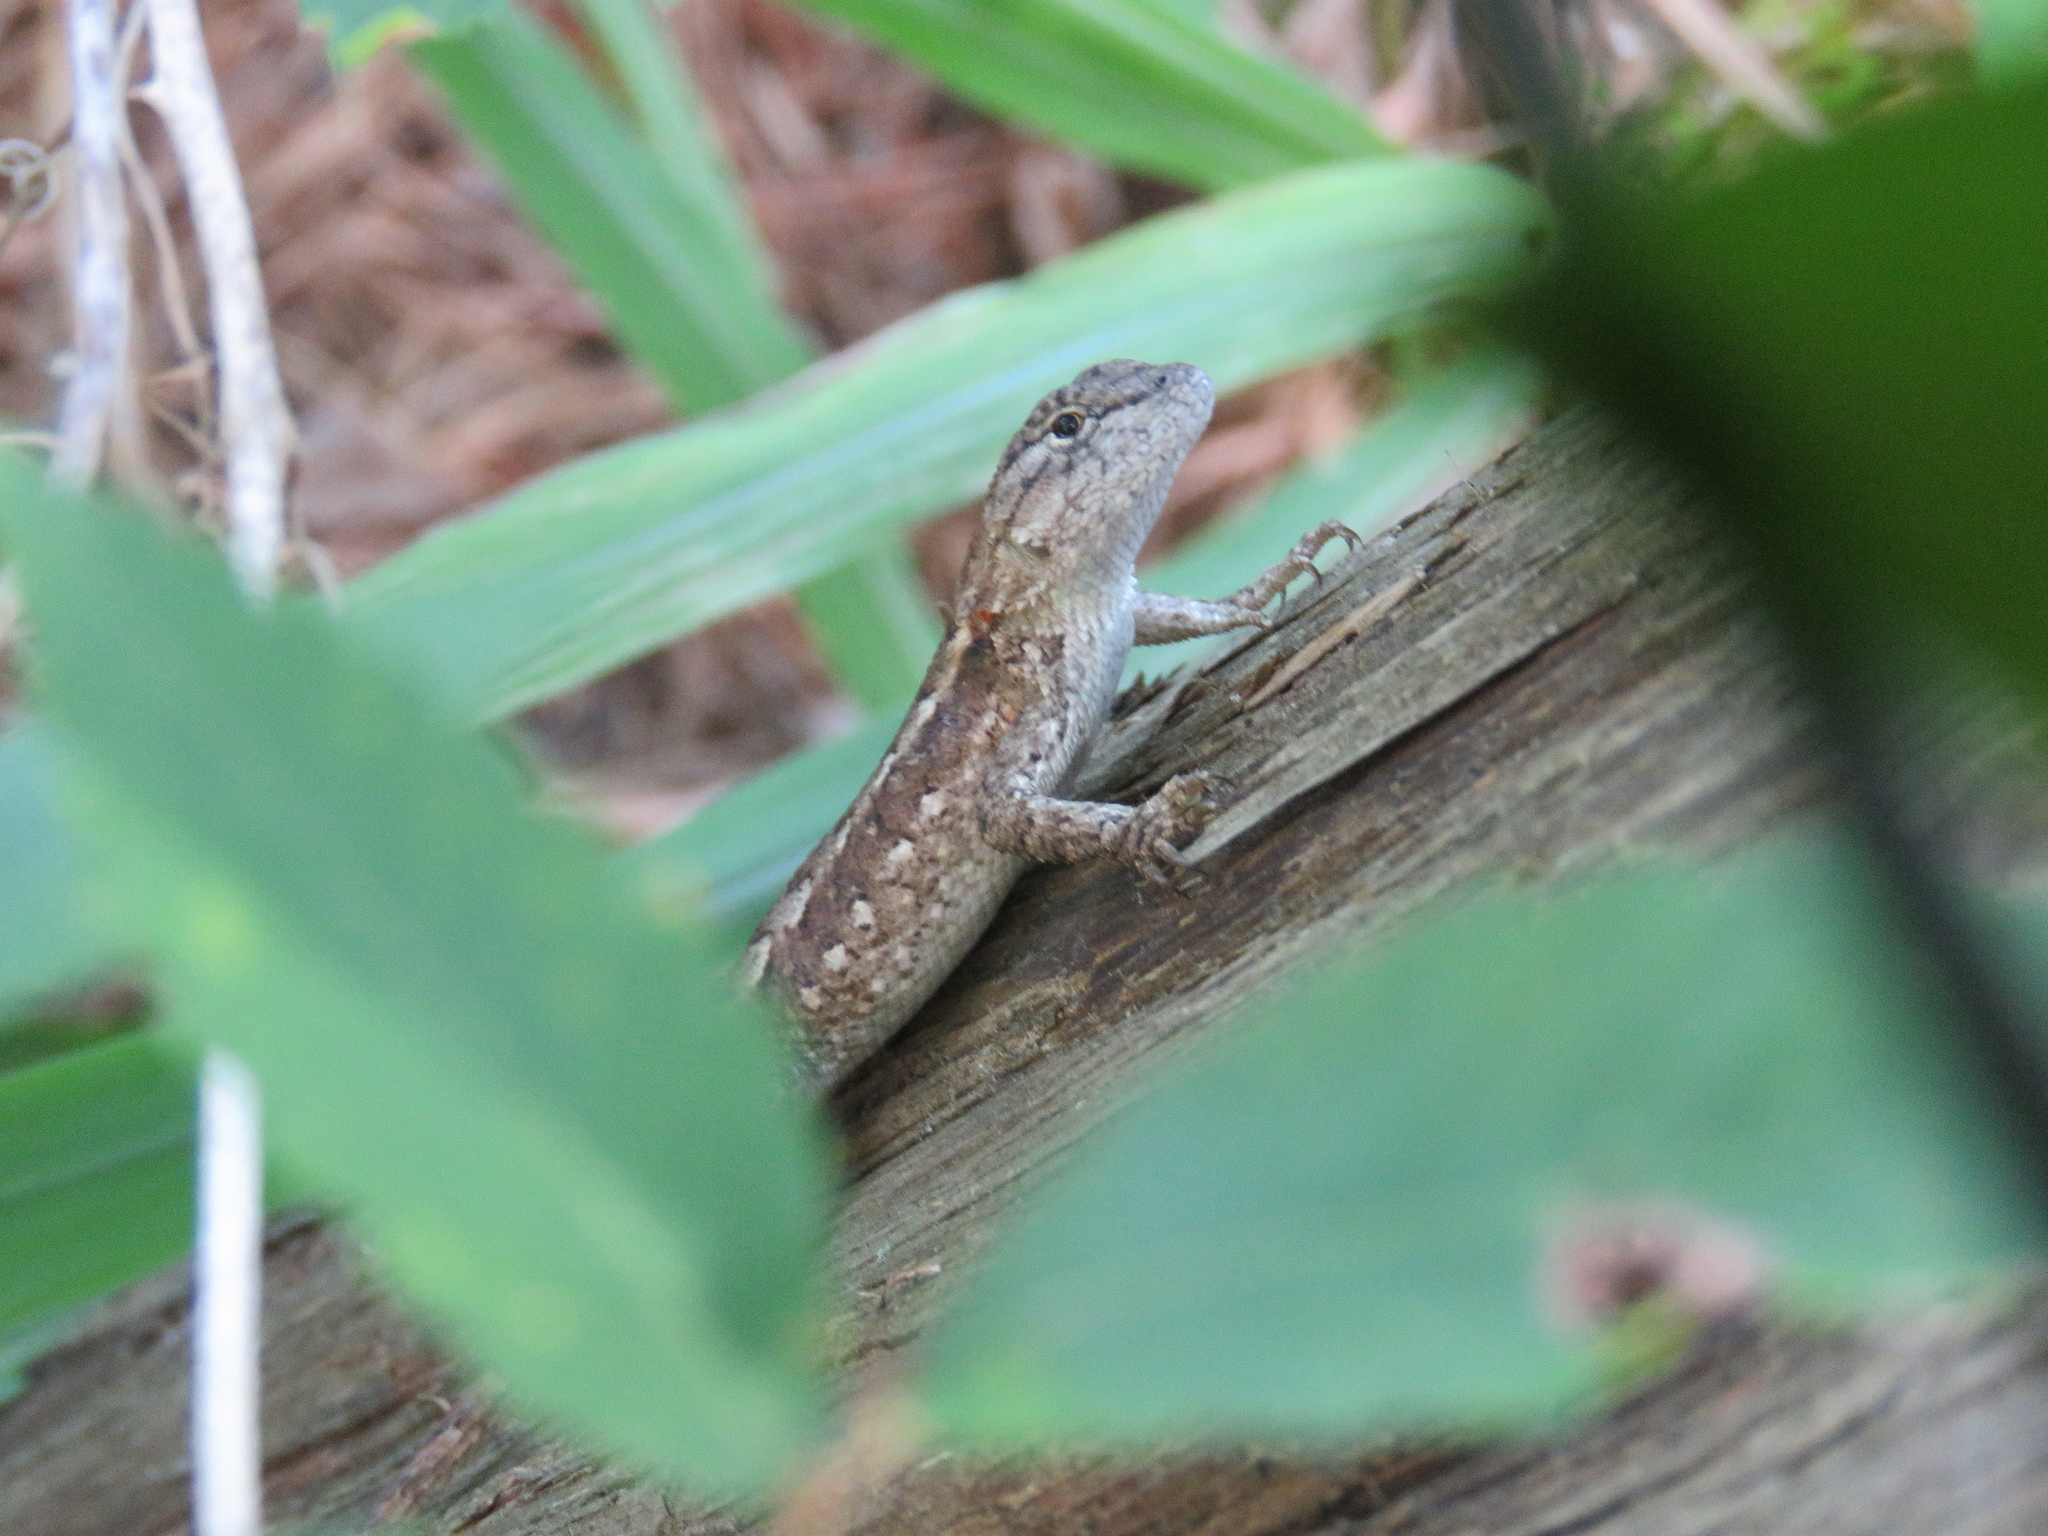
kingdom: Animalia
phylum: Chordata
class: Squamata
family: Phrynosomatidae
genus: Sceloporus
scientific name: Sceloporus consobrinus
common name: Southern prairie lizard
